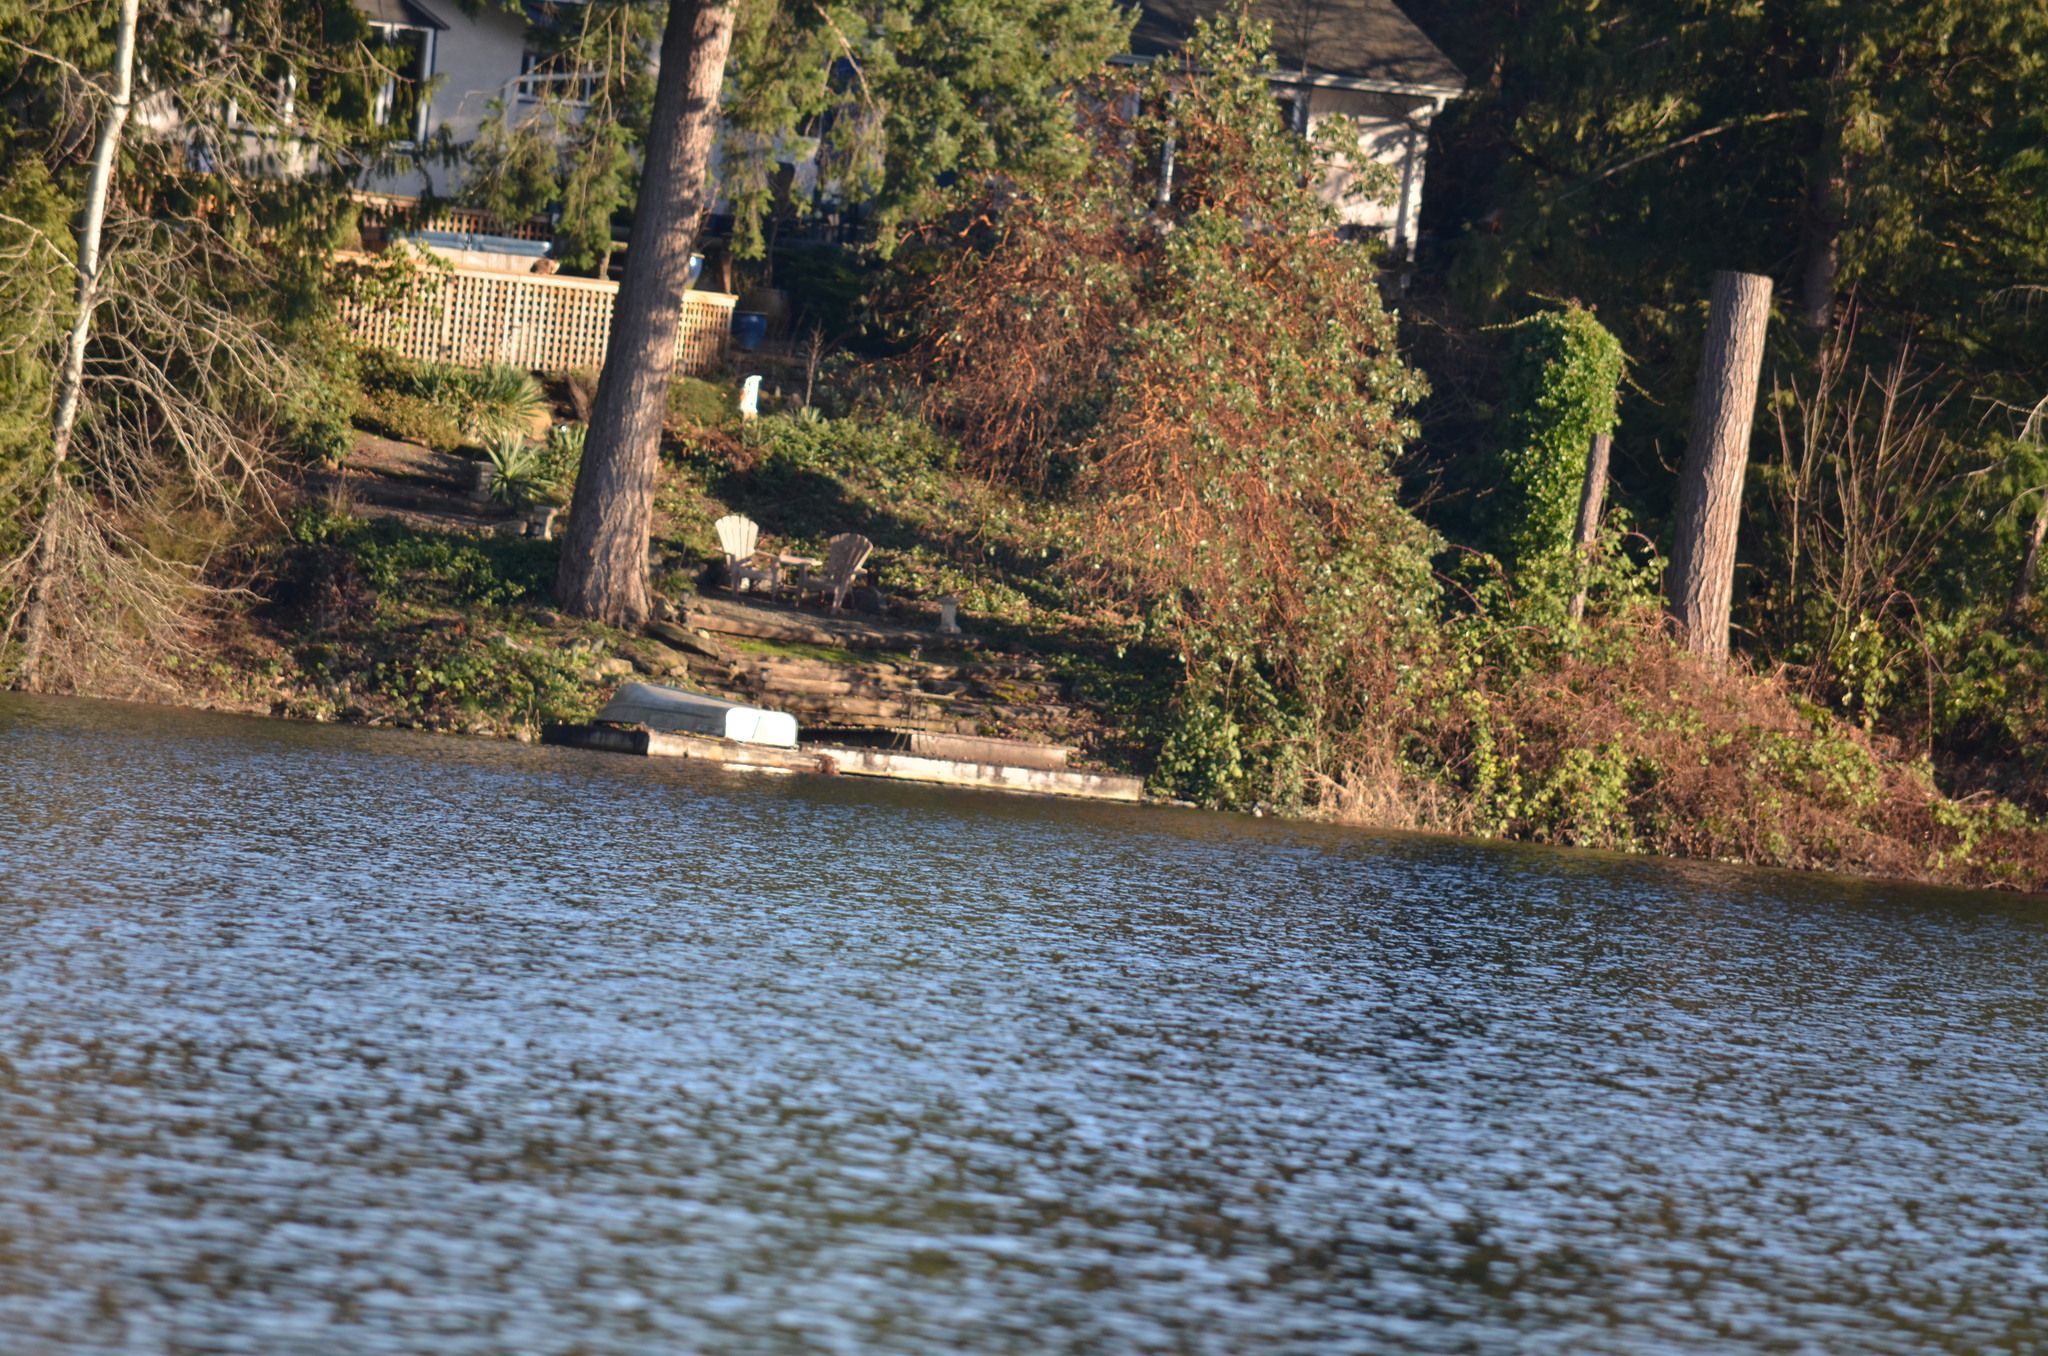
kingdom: Animalia
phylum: Chordata
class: Aves
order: Anseriformes
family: Anatidae
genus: Anas
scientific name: Anas platyrhynchos
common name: Mallard
